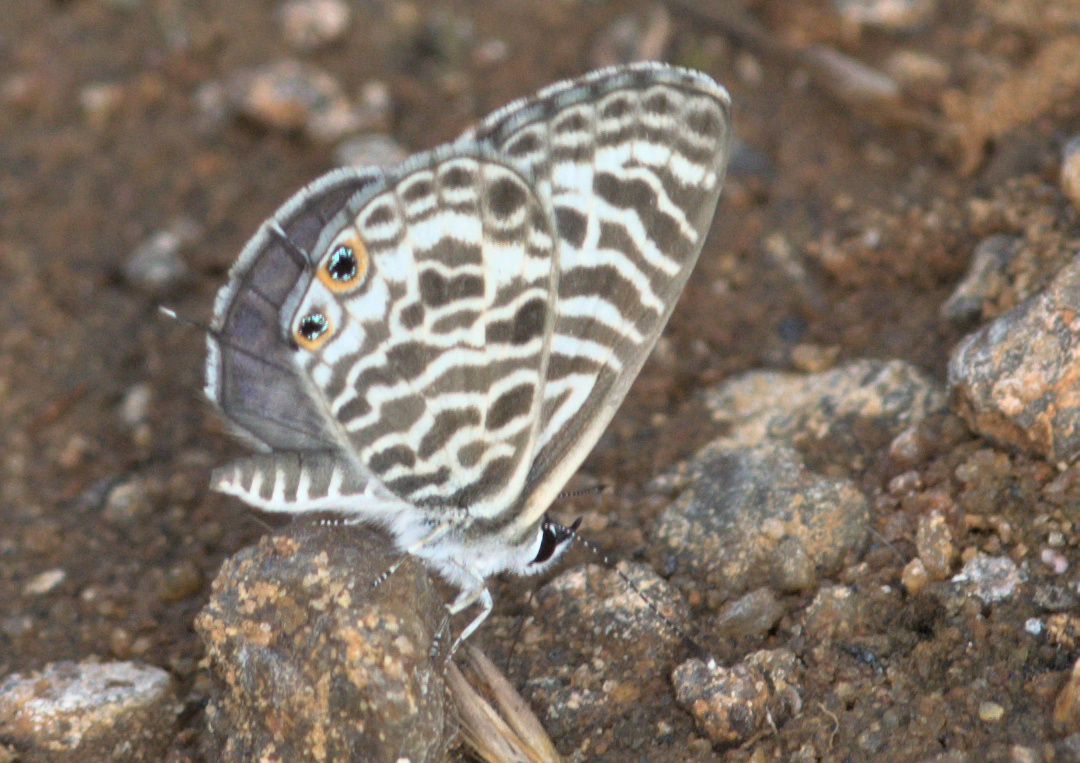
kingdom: Animalia
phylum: Arthropoda
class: Insecta
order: Lepidoptera
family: Lycaenidae
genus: Leptotes
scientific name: Leptotes plinius
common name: Zebra blue
